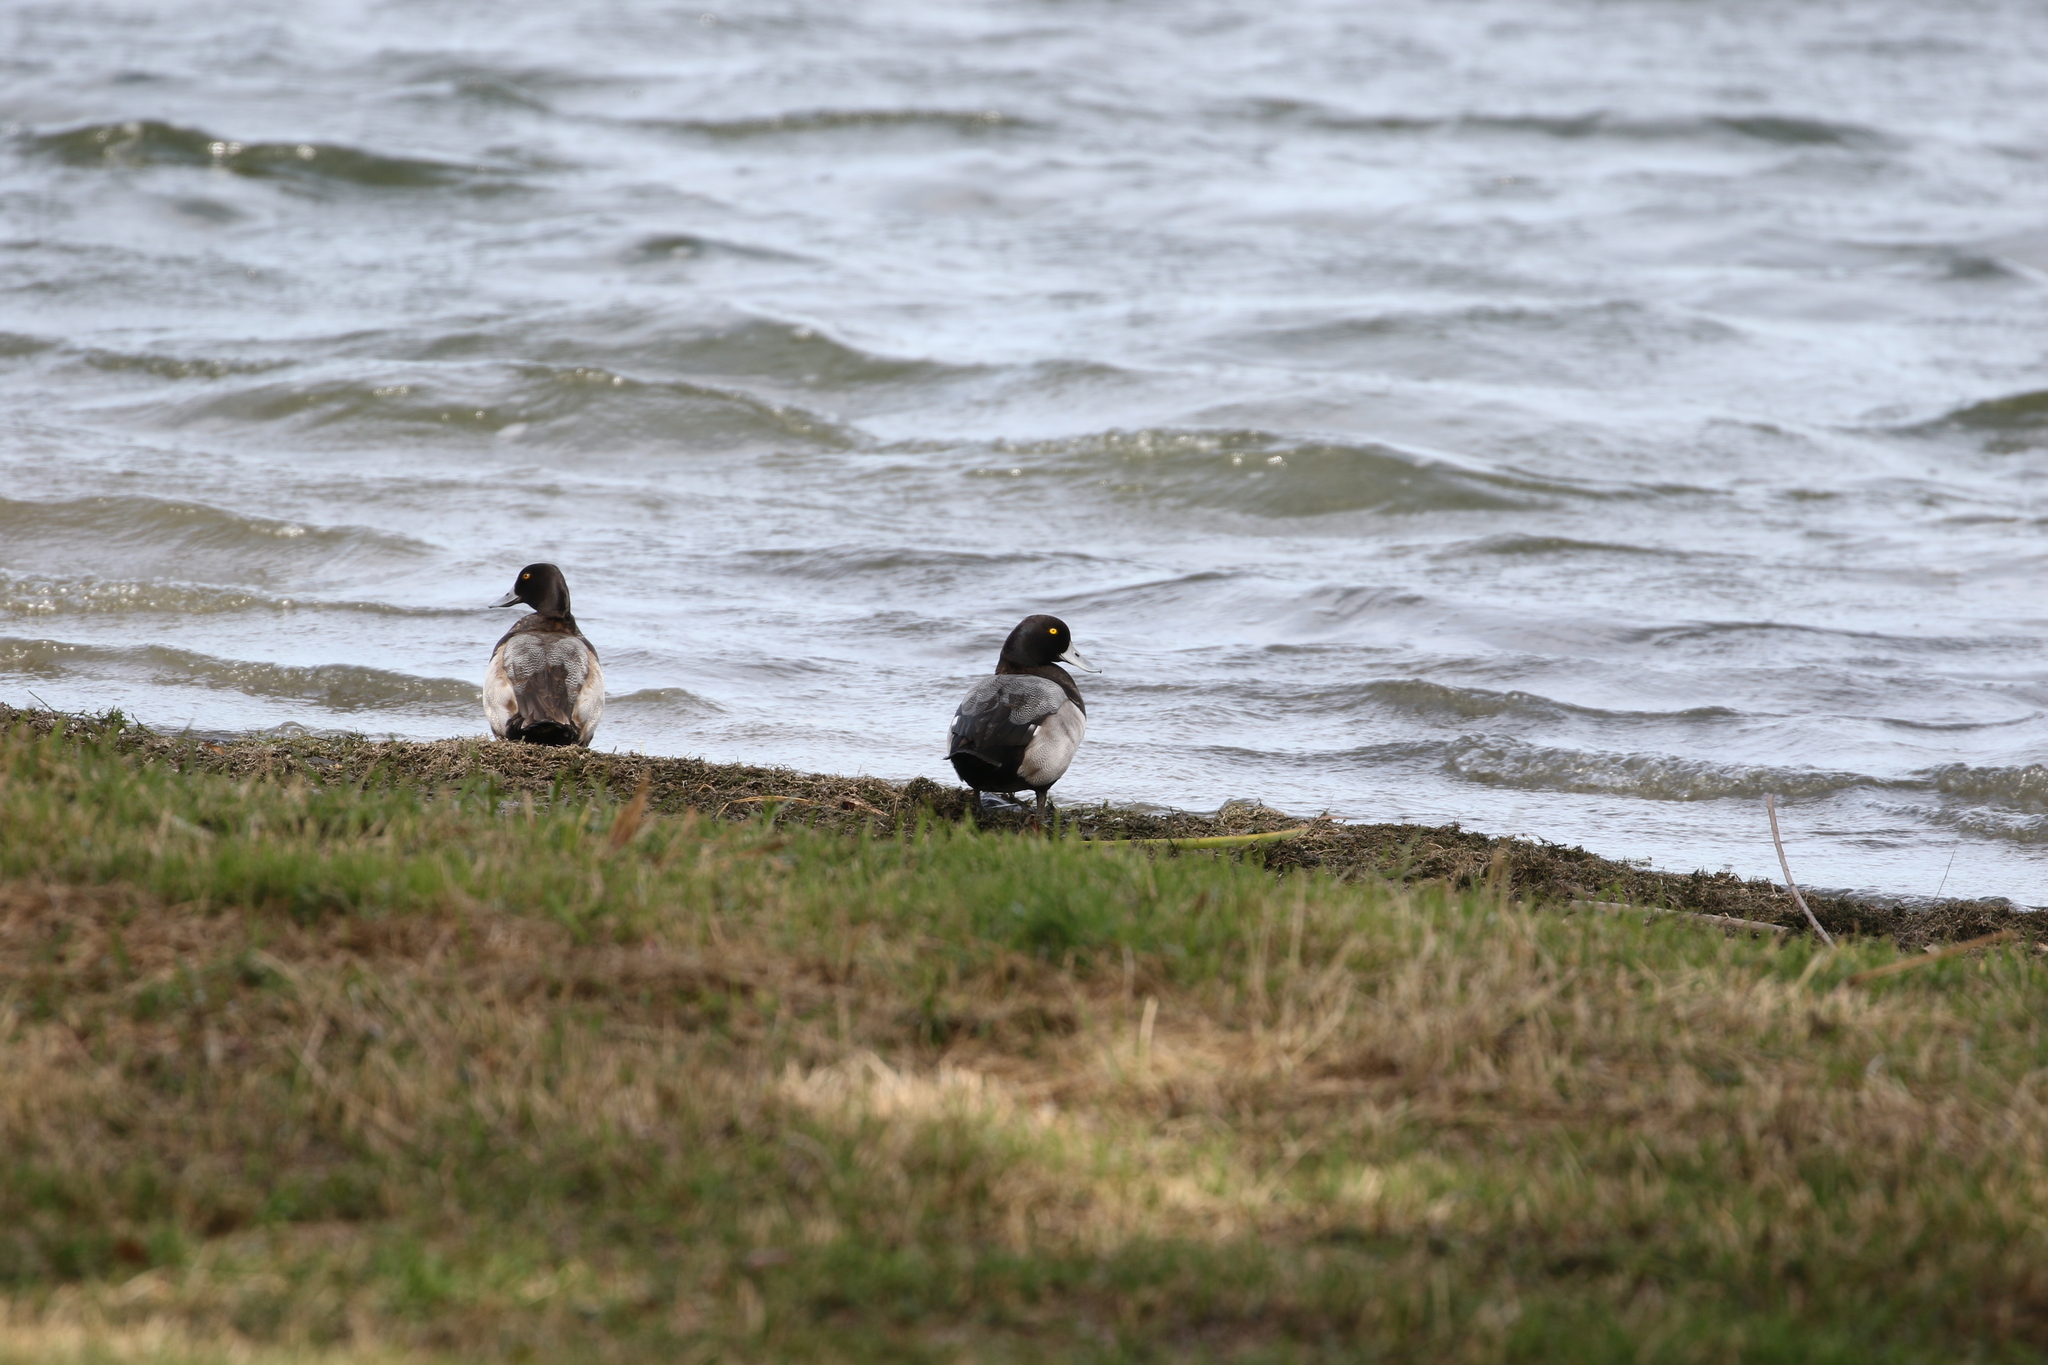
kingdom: Animalia
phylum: Chordata
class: Aves
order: Anseriformes
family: Anatidae
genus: Aythya
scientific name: Aythya affinis
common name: Lesser scaup
